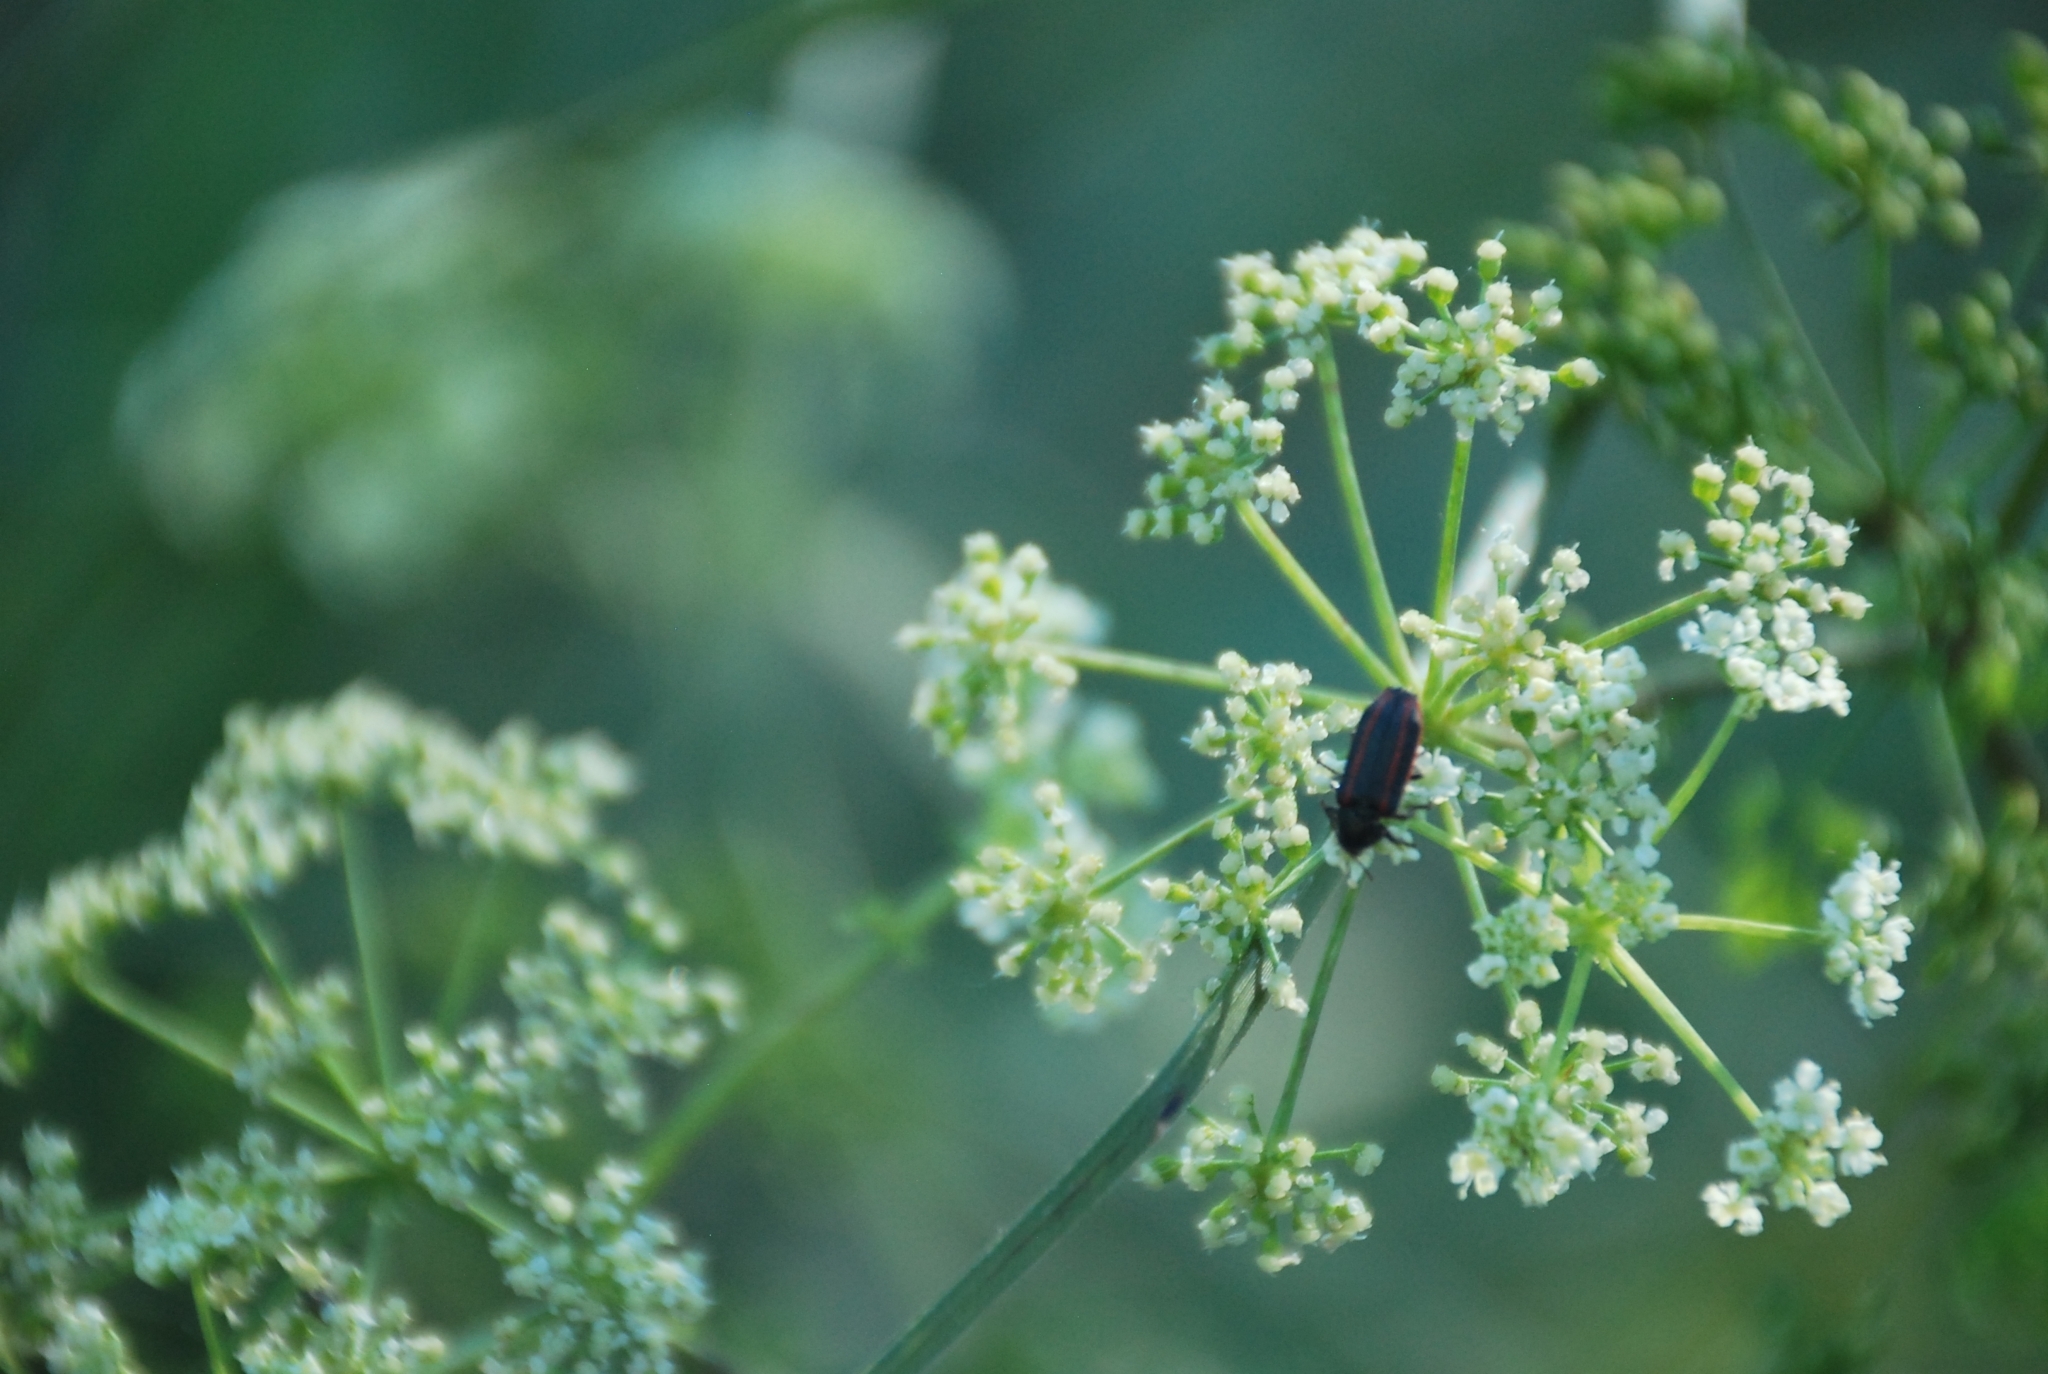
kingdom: Animalia
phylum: Arthropoda
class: Insecta
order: Coleoptera
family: Melyridae
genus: Astylus
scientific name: Astylus
